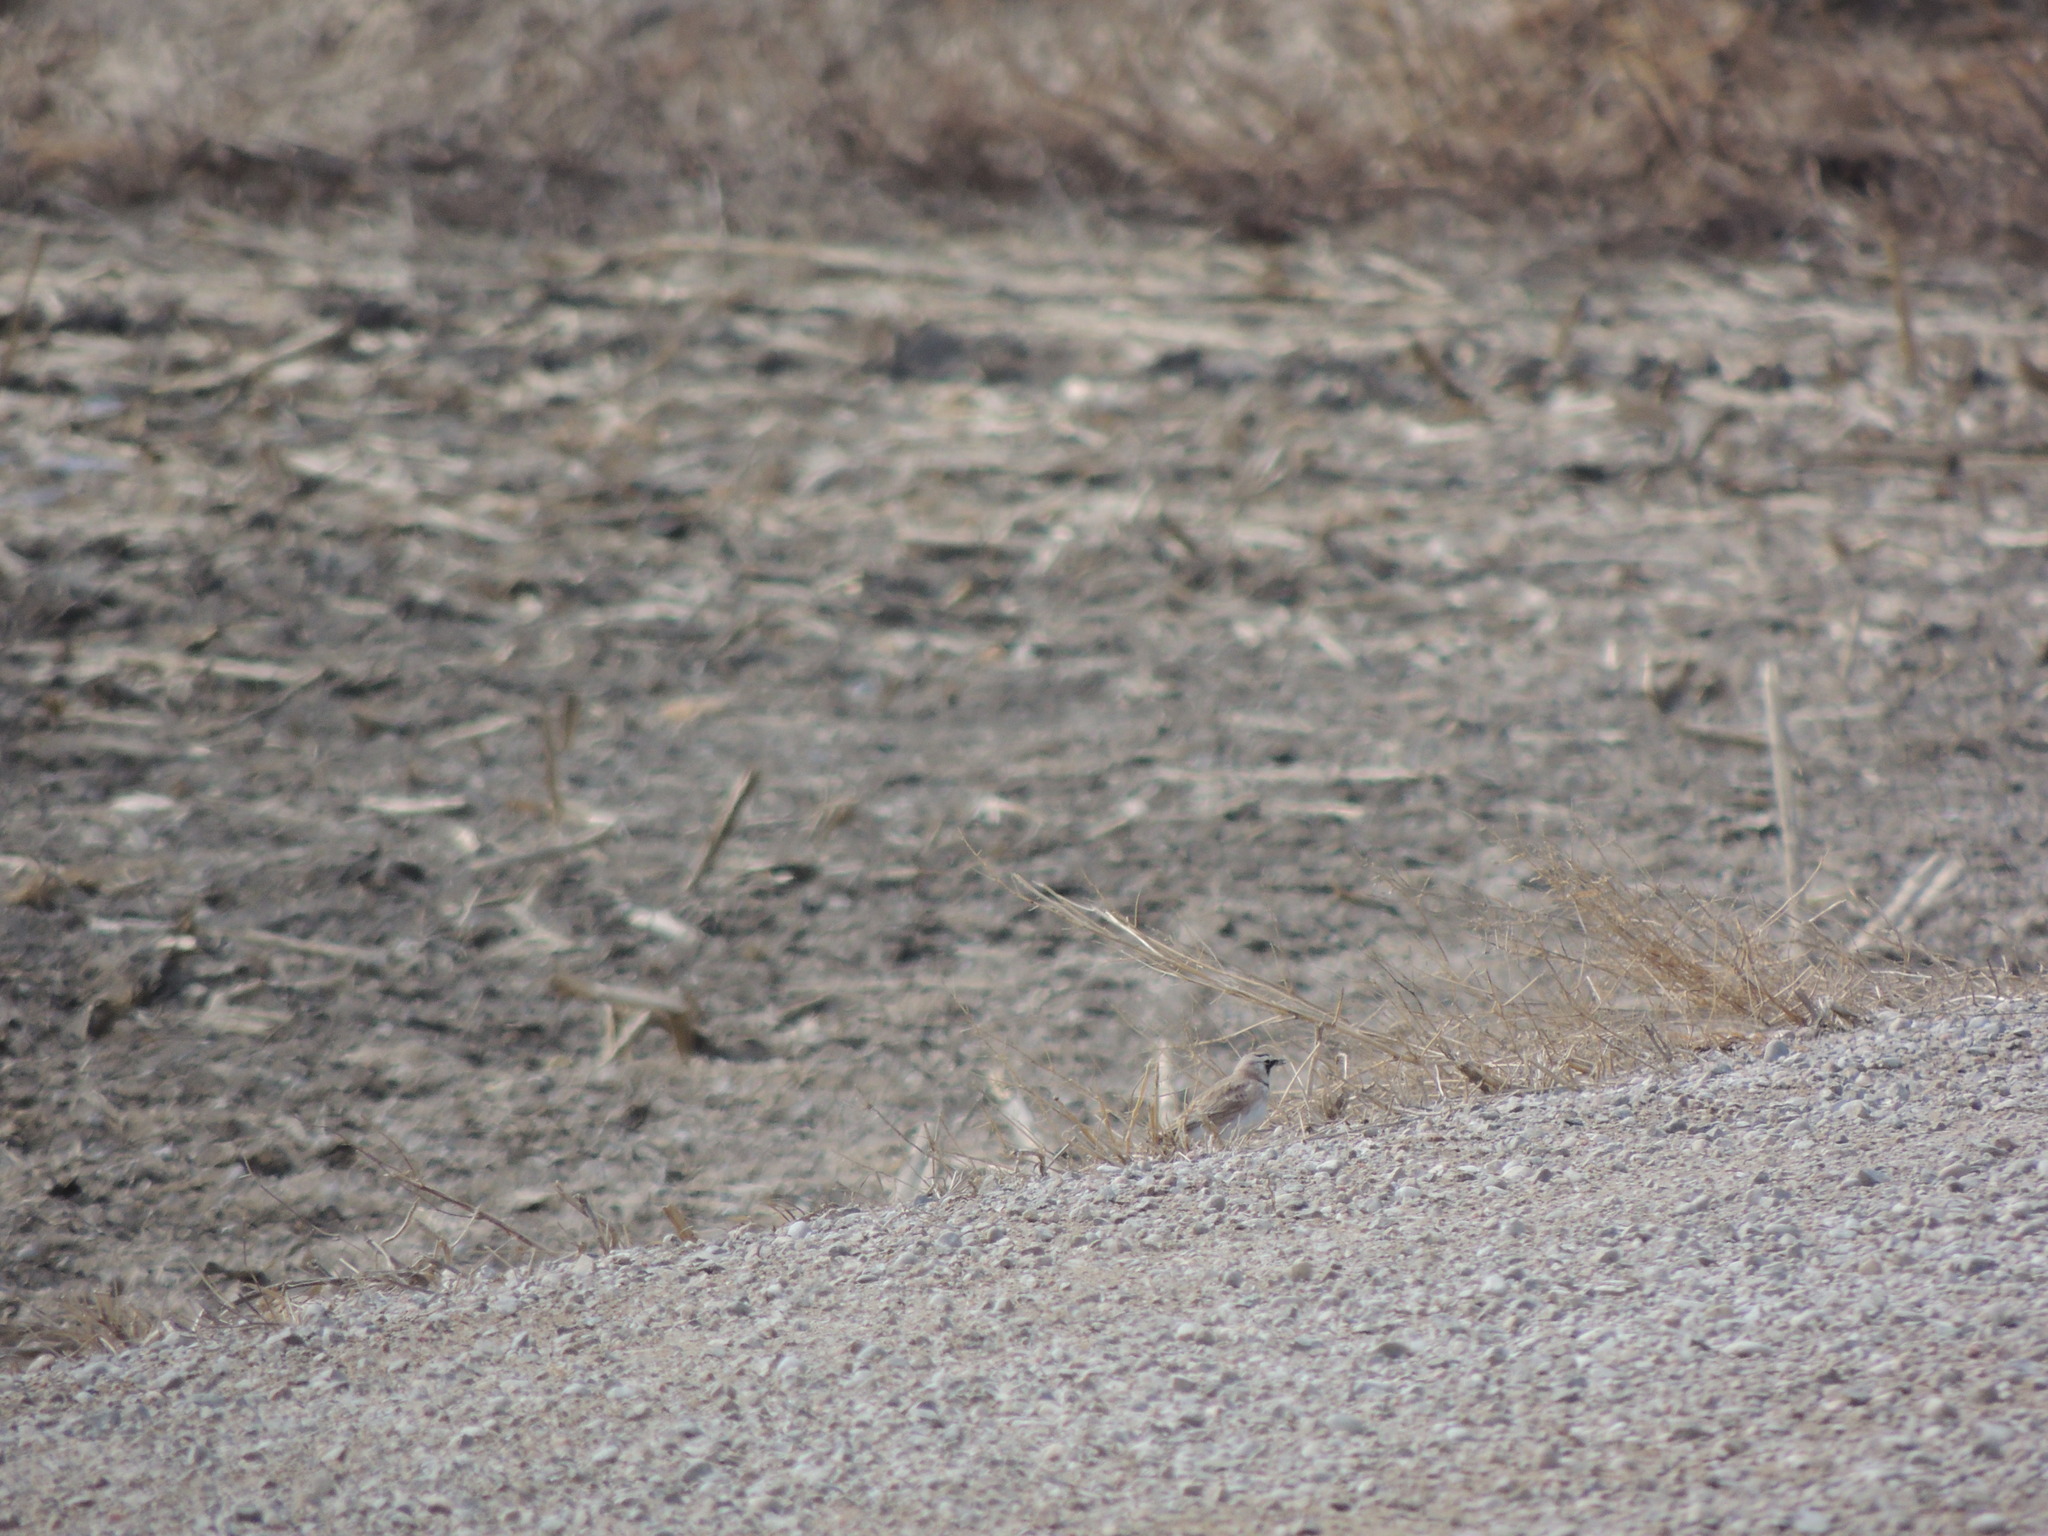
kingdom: Animalia
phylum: Chordata
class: Aves
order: Passeriformes
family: Alaudidae
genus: Eremophila
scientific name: Eremophila alpestris
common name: Horned lark
